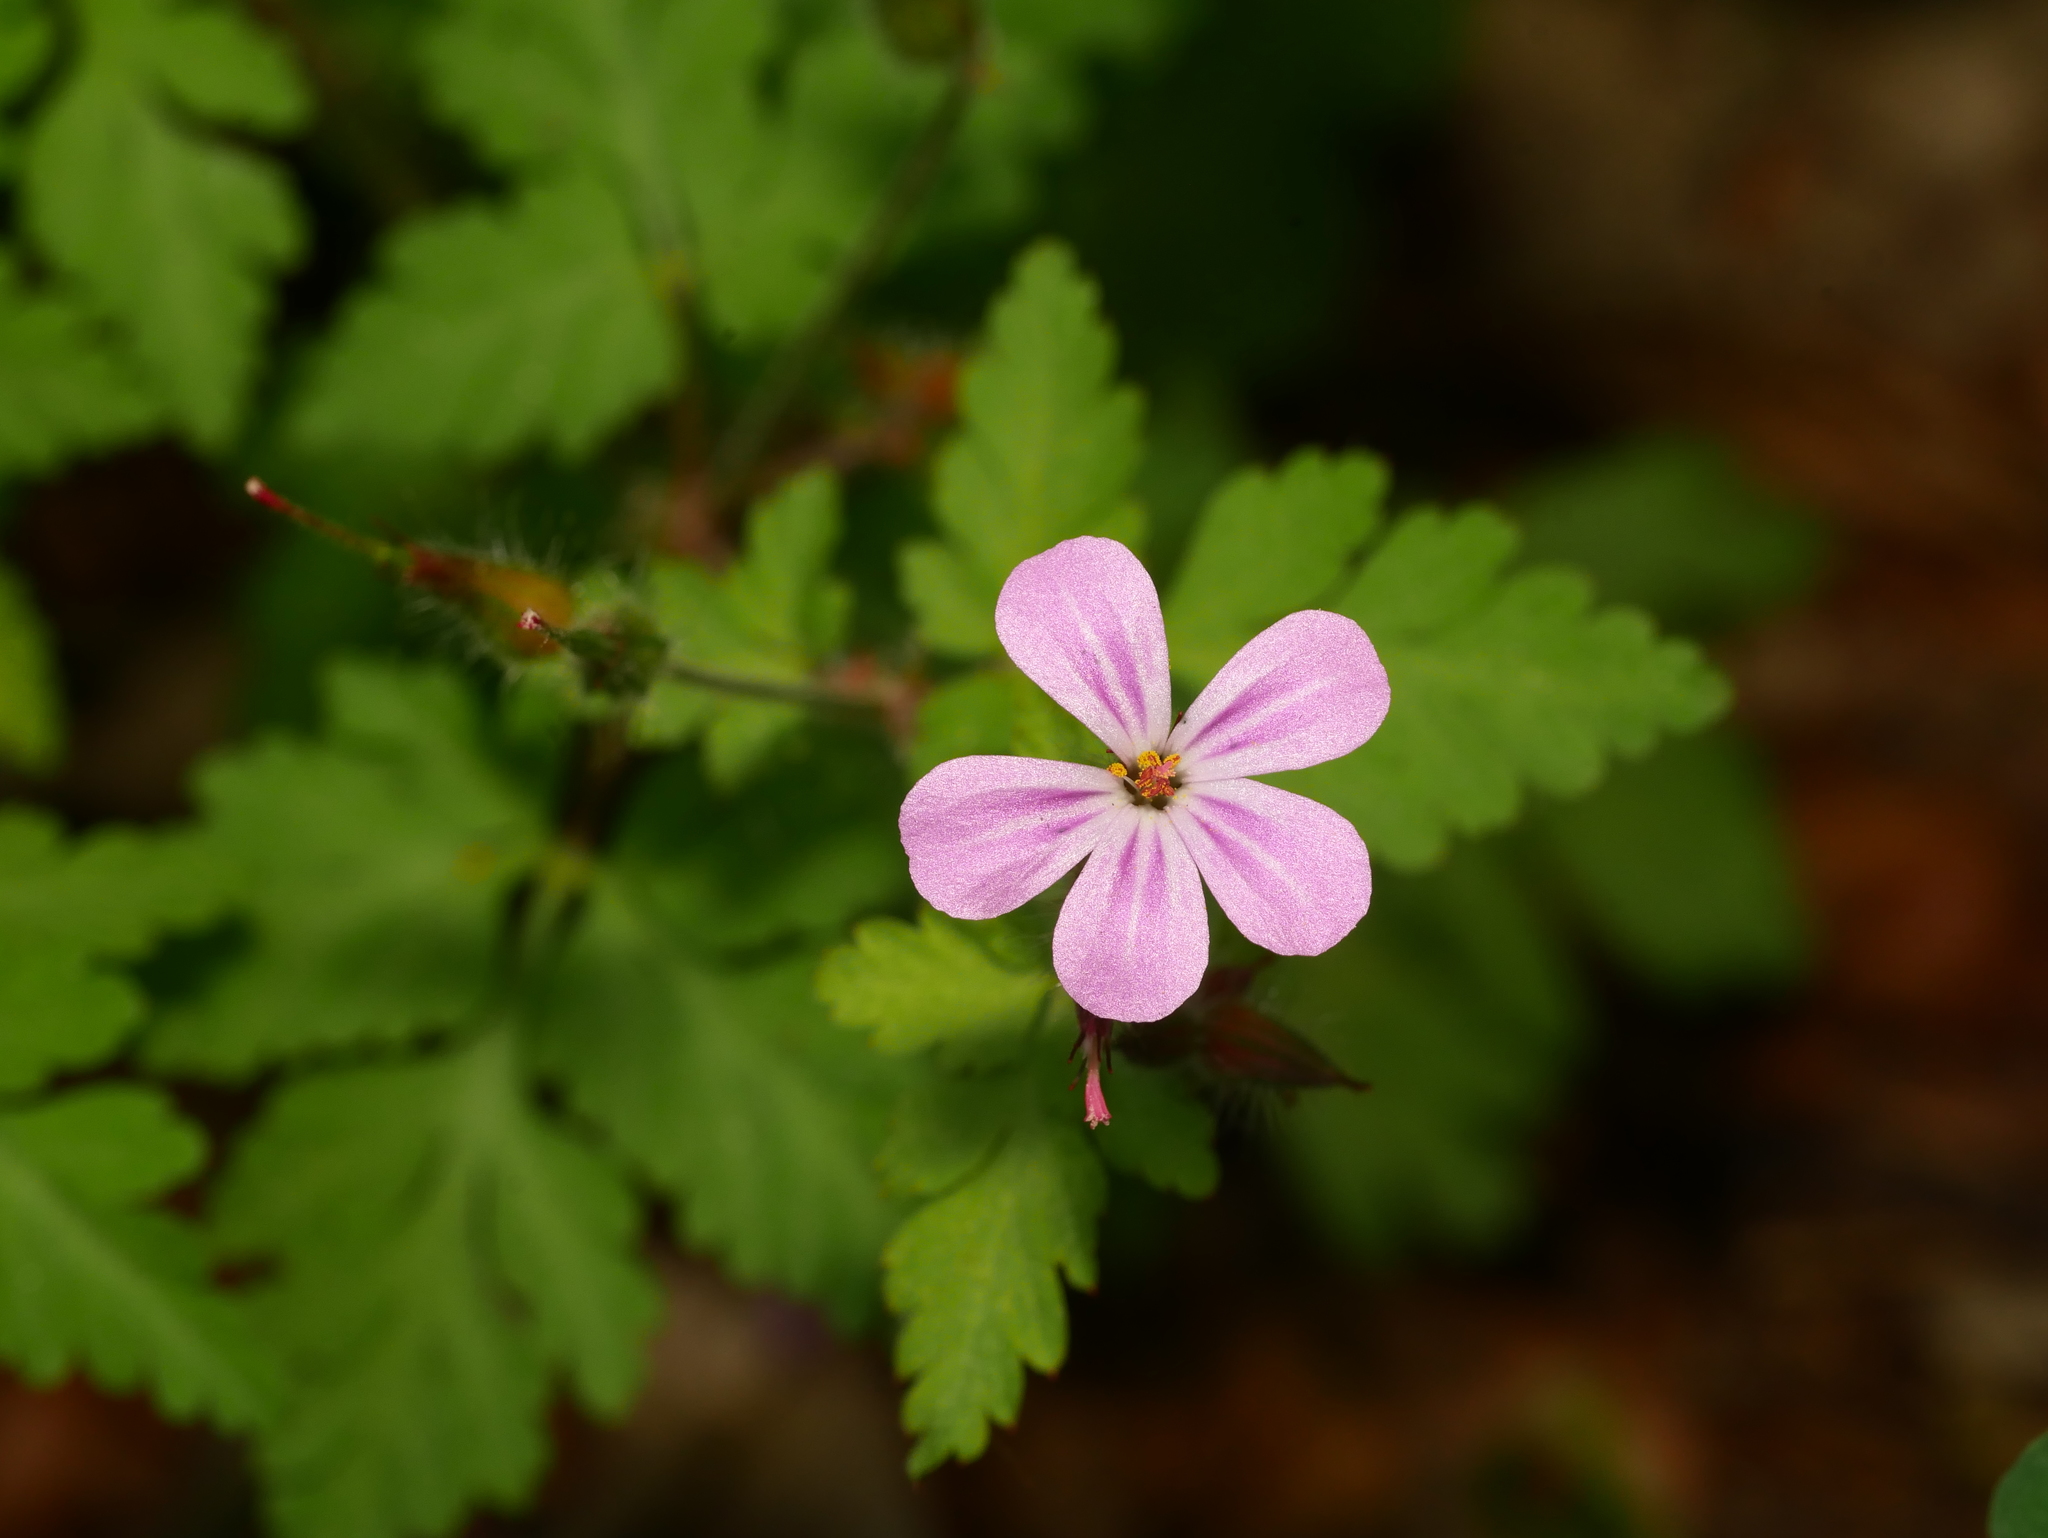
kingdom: Plantae
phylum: Tracheophyta
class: Magnoliopsida
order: Geraniales
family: Geraniaceae
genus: Geranium
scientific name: Geranium robertianum
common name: Herb-robert
